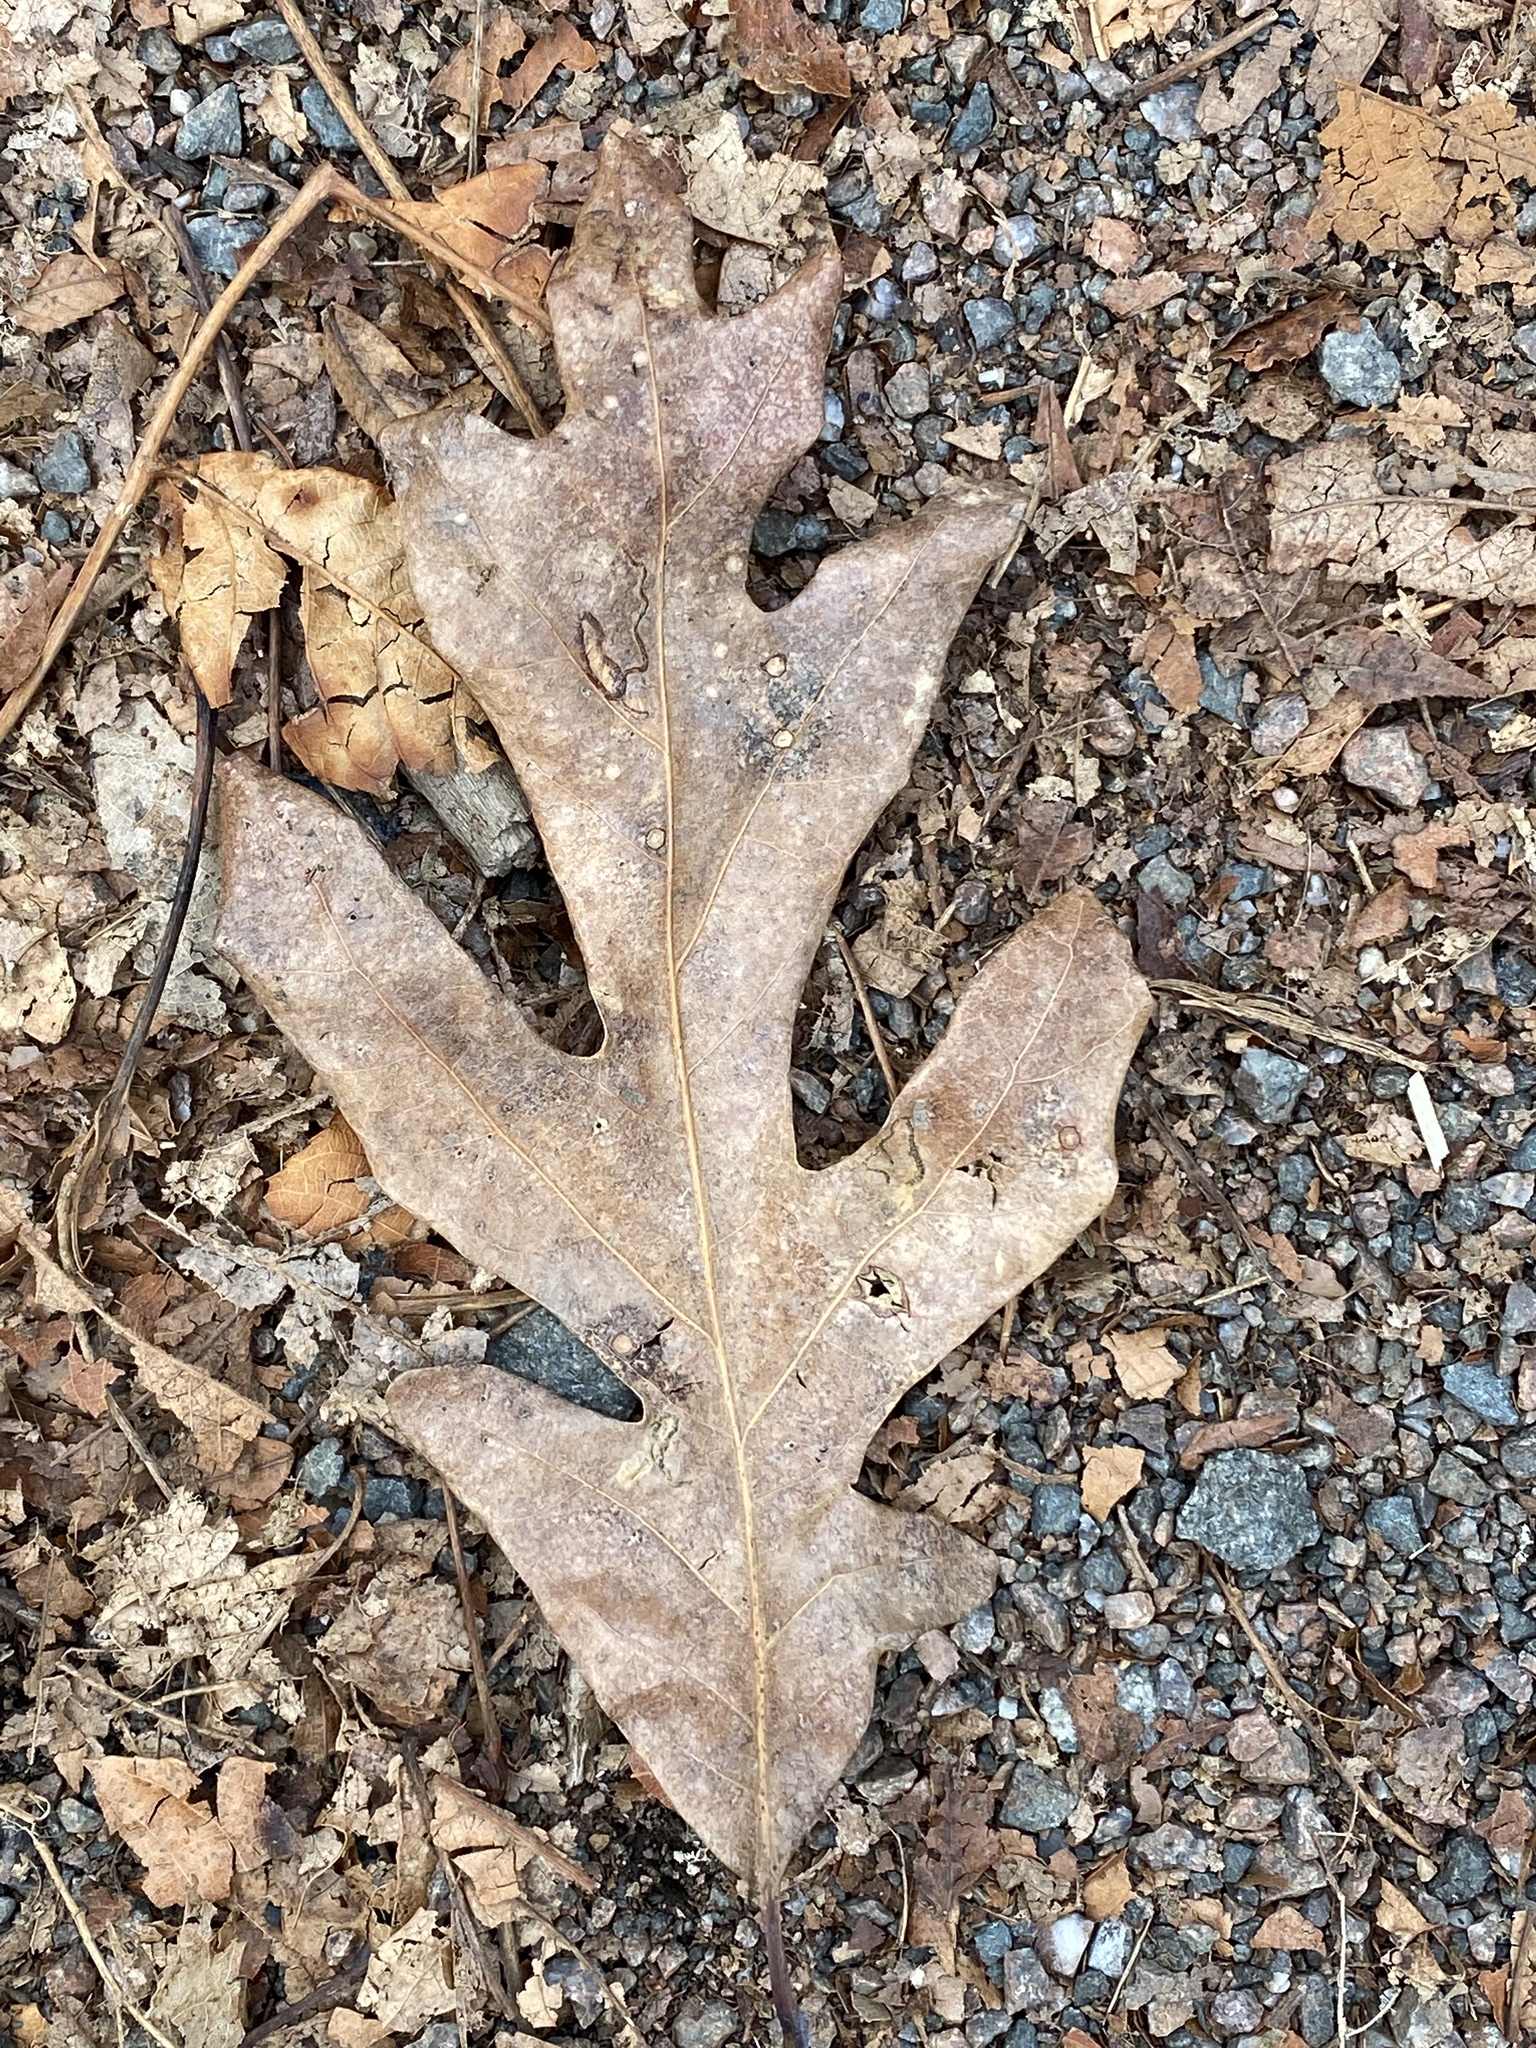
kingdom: Plantae
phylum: Tracheophyta
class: Magnoliopsida
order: Fagales
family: Fagaceae
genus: Quercus
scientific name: Quercus alba
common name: White oak
